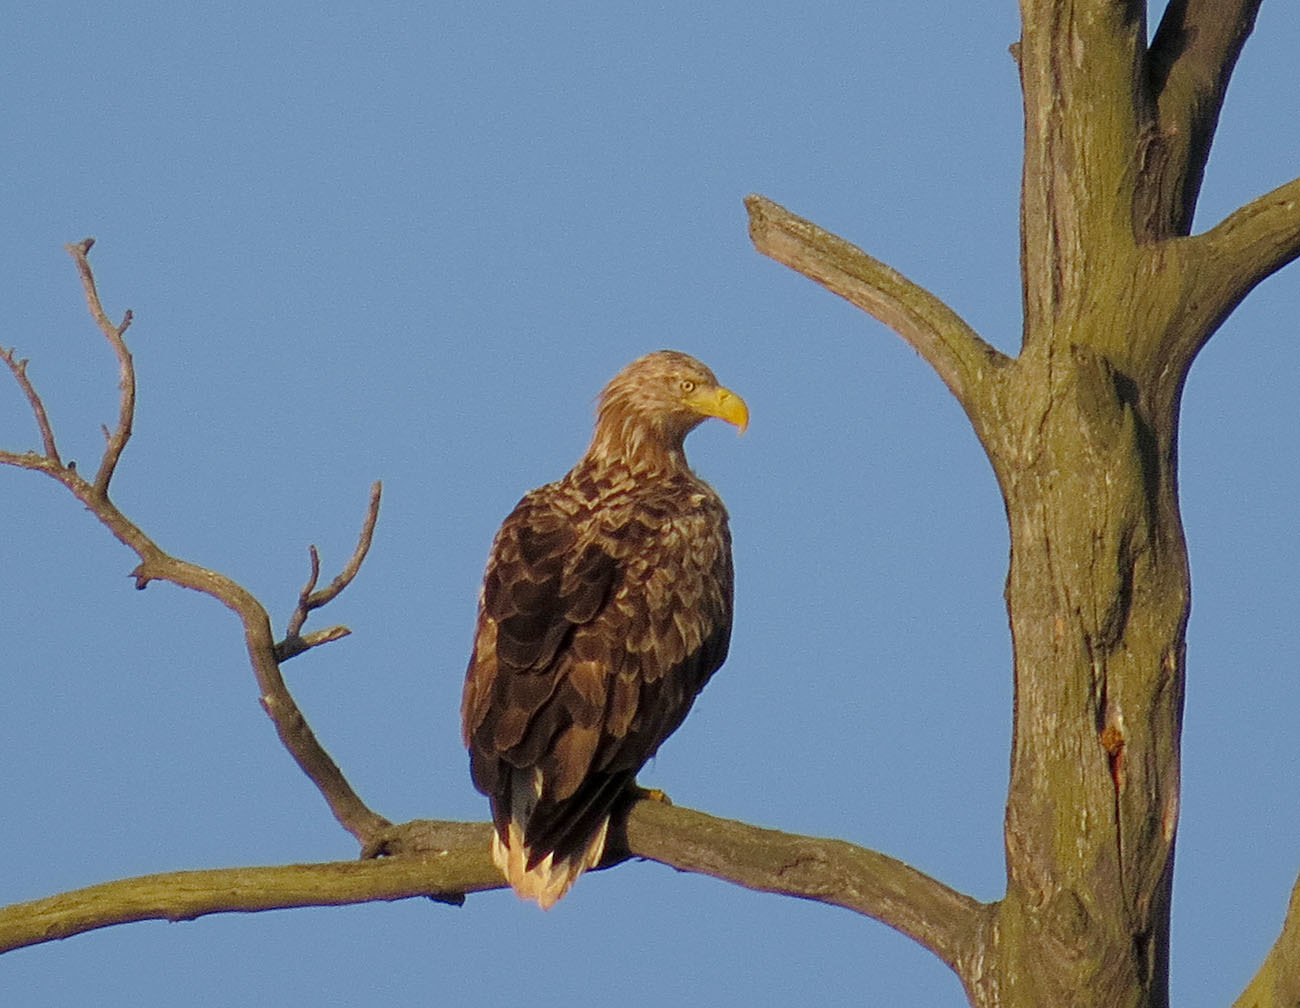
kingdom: Animalia
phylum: Chordata
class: Aves
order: Accipitriformes
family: Accipitridae
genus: Haliaeetus
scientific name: Haliaeetus albicilla
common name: White-tailed eagle
